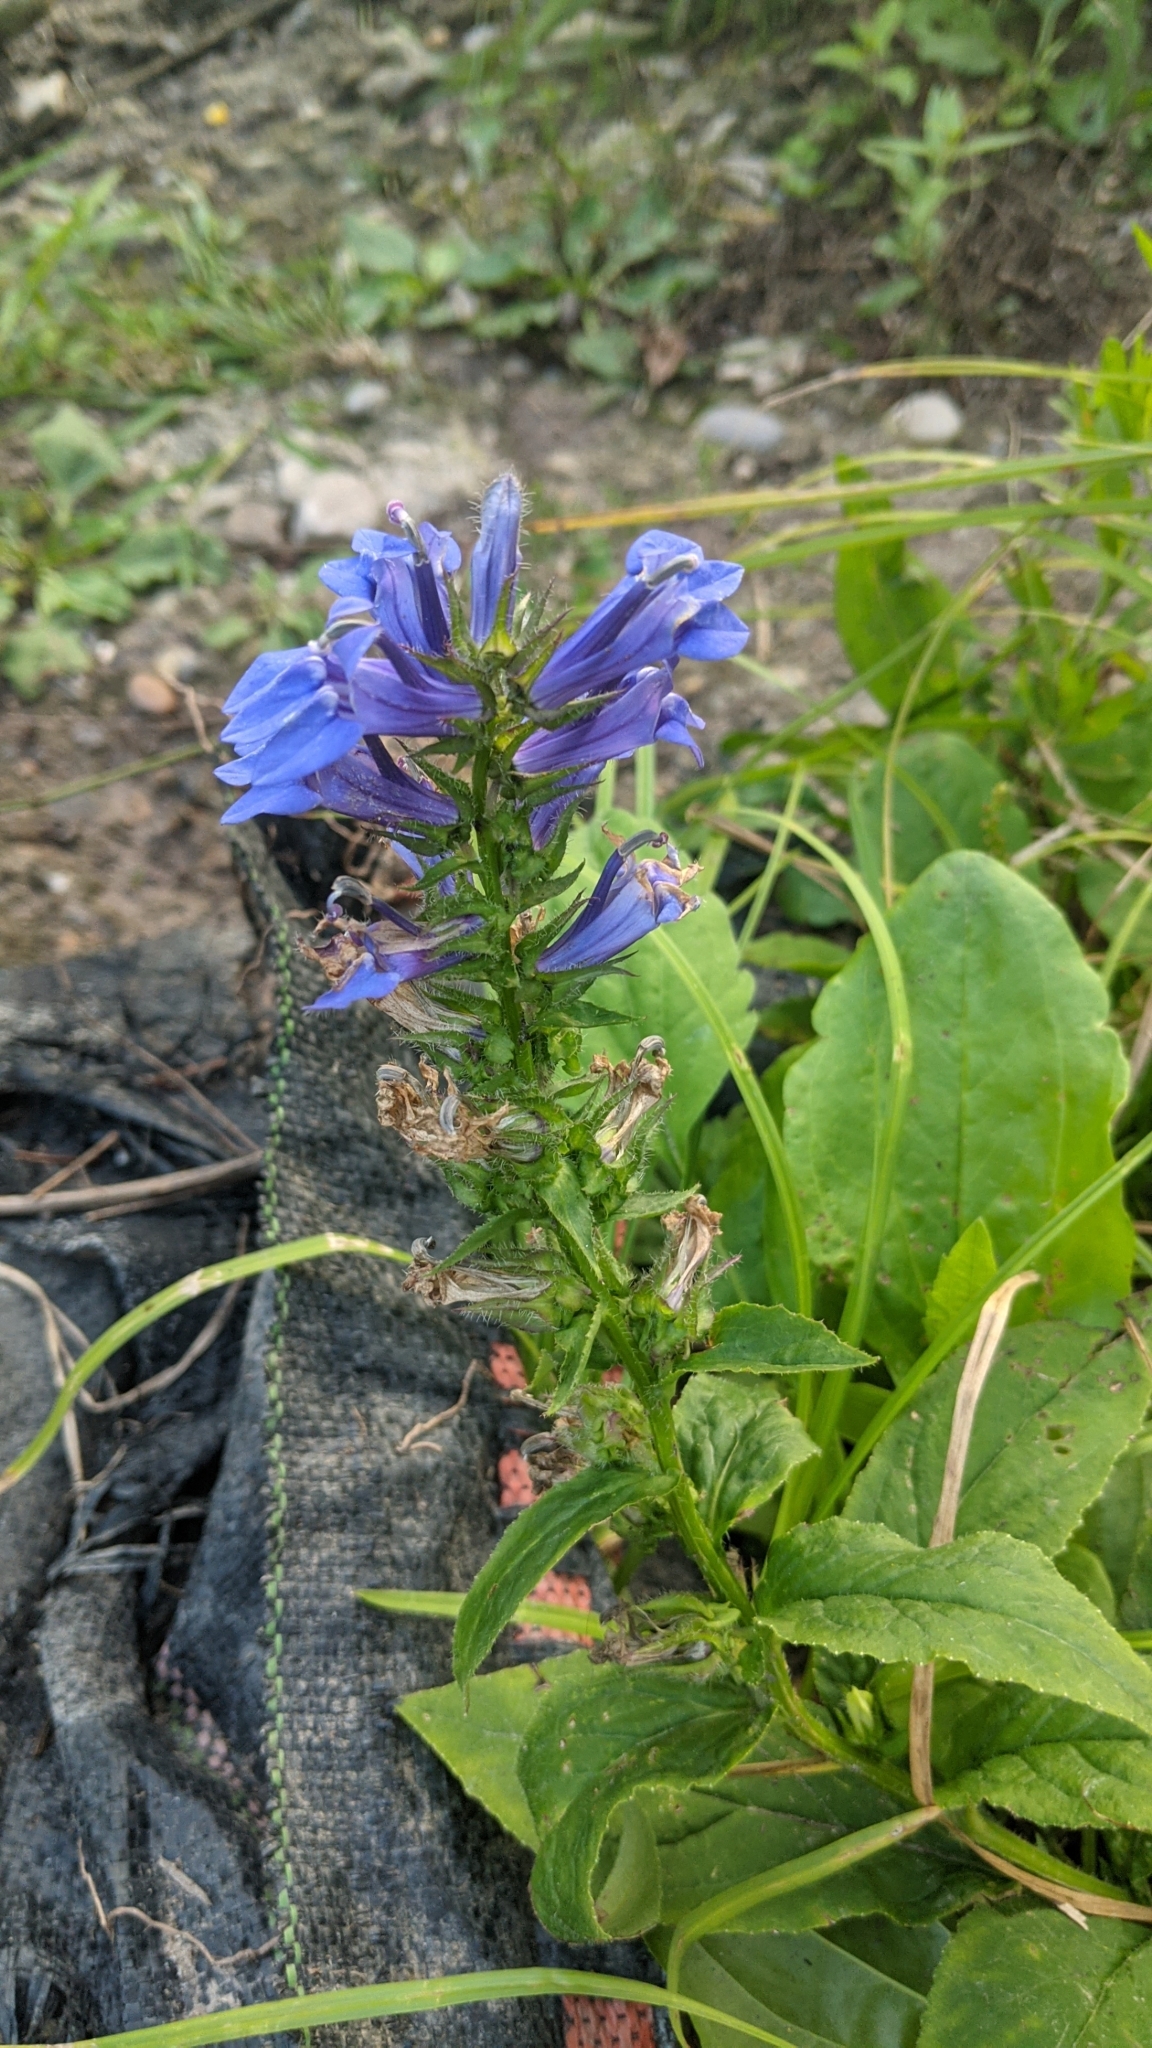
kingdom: Plantae
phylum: Tracheophyta
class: Magnoliopsida
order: Asterales
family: Campanulaceae
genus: Lobelia
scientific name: Lobelia siphilitica
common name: Great lobelia
